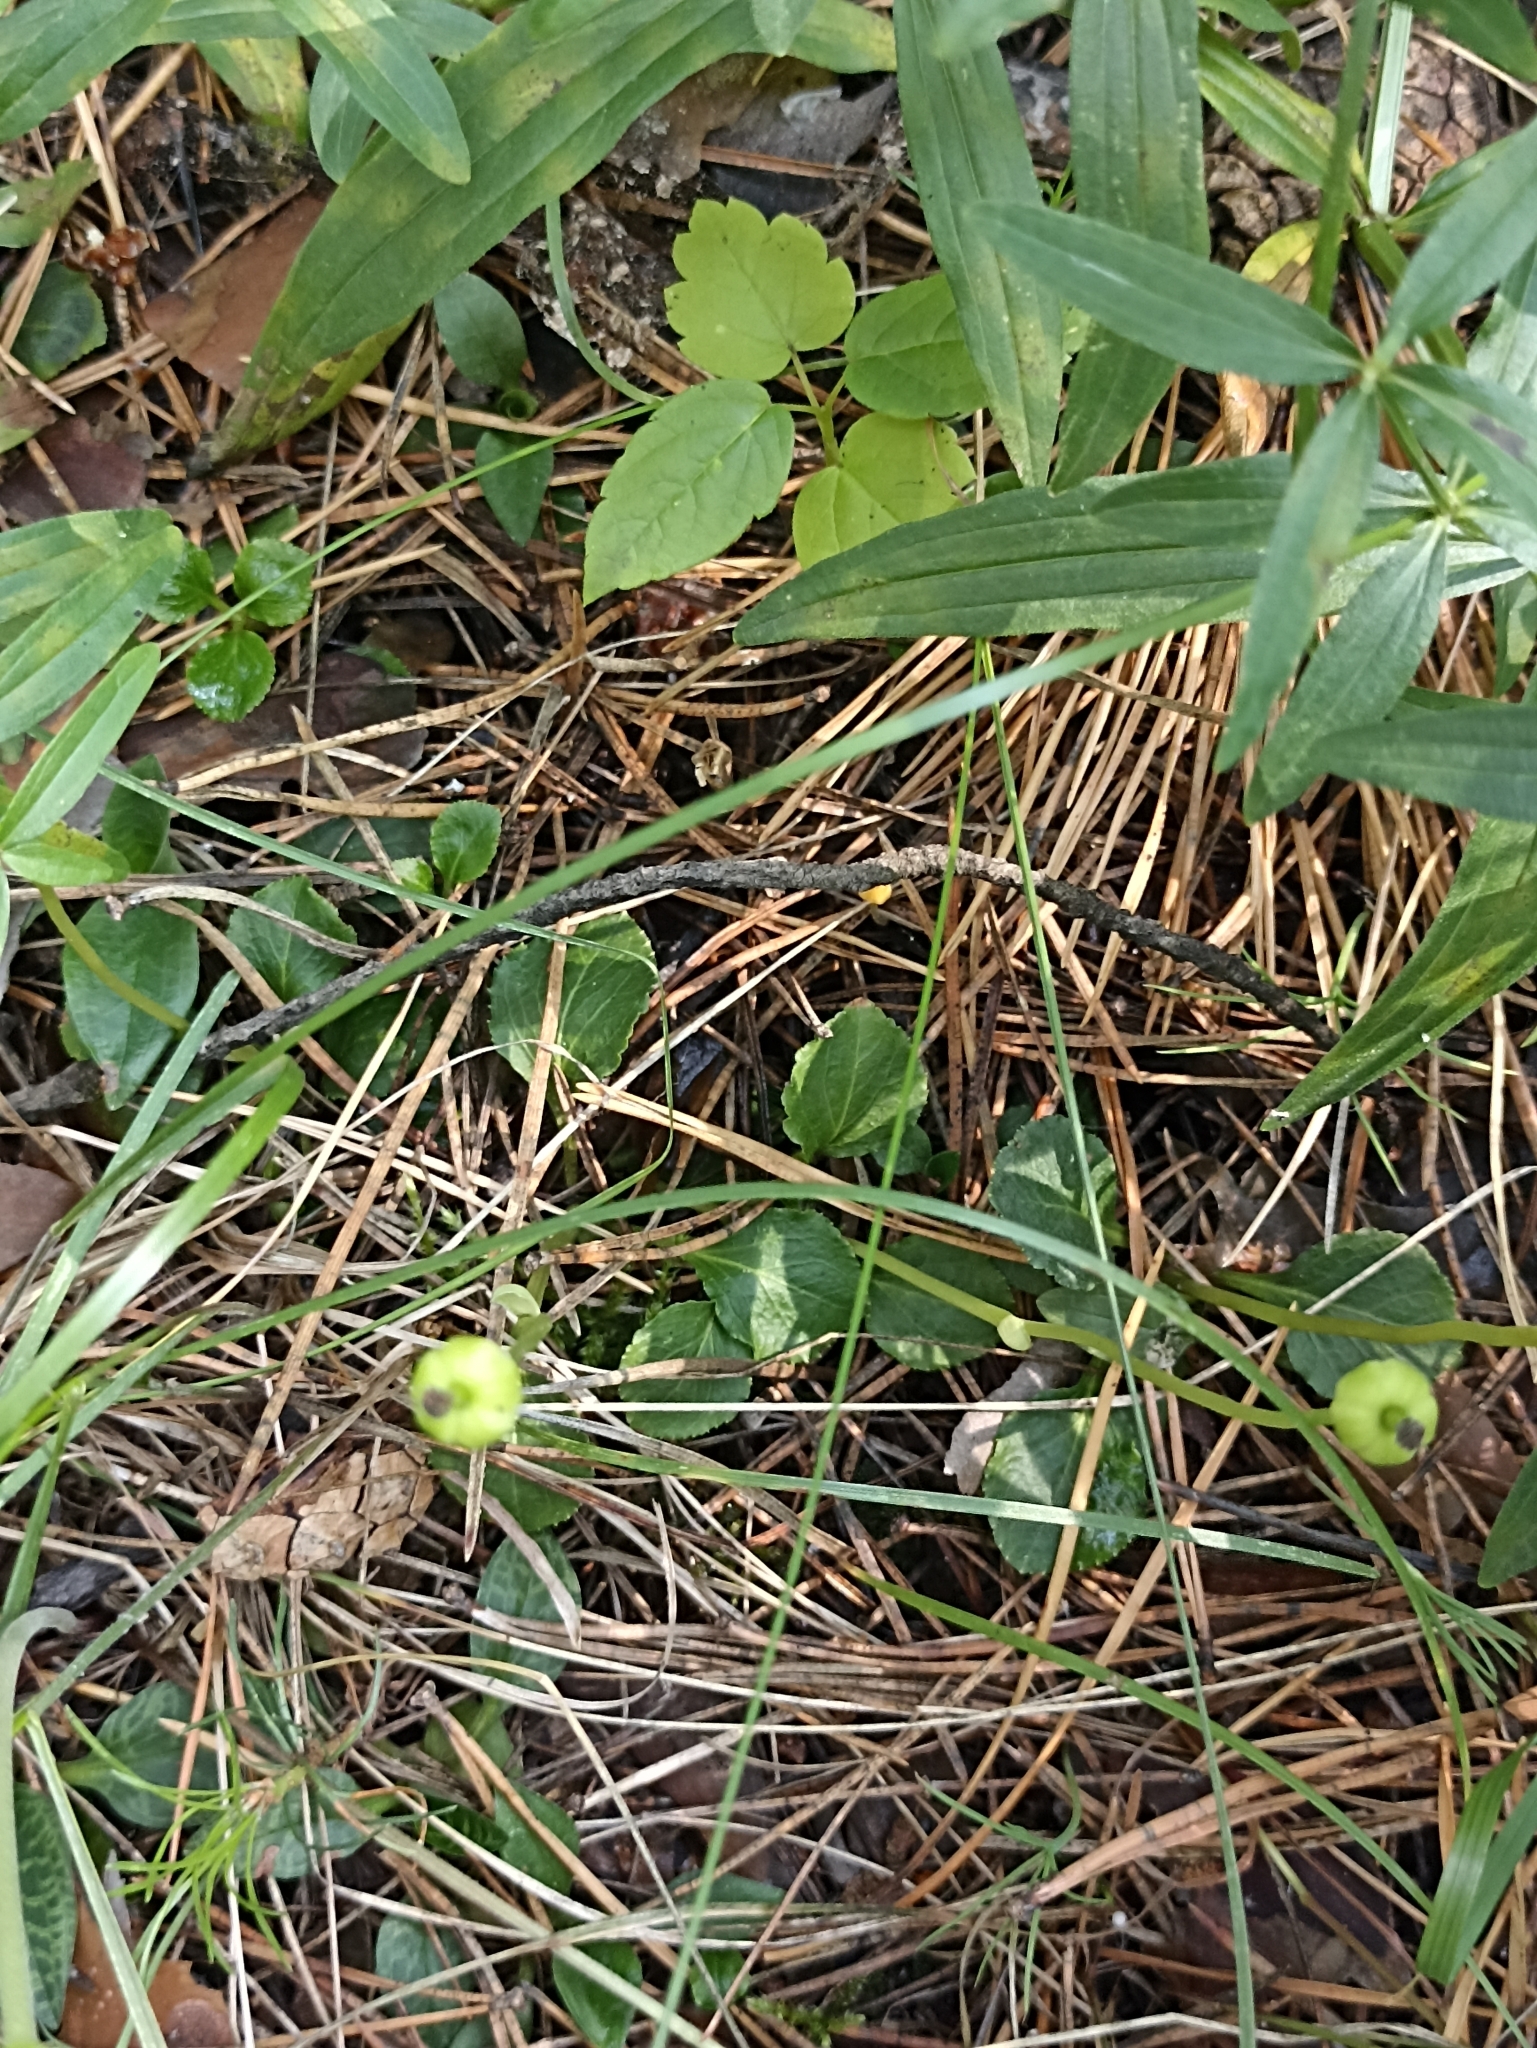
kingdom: Plantae
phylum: Tracheophyta
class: Magnoliopsida
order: Ericales
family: Ericaceae
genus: Moneses
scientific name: Moneses uniflora
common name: One-flowered wintergreen
